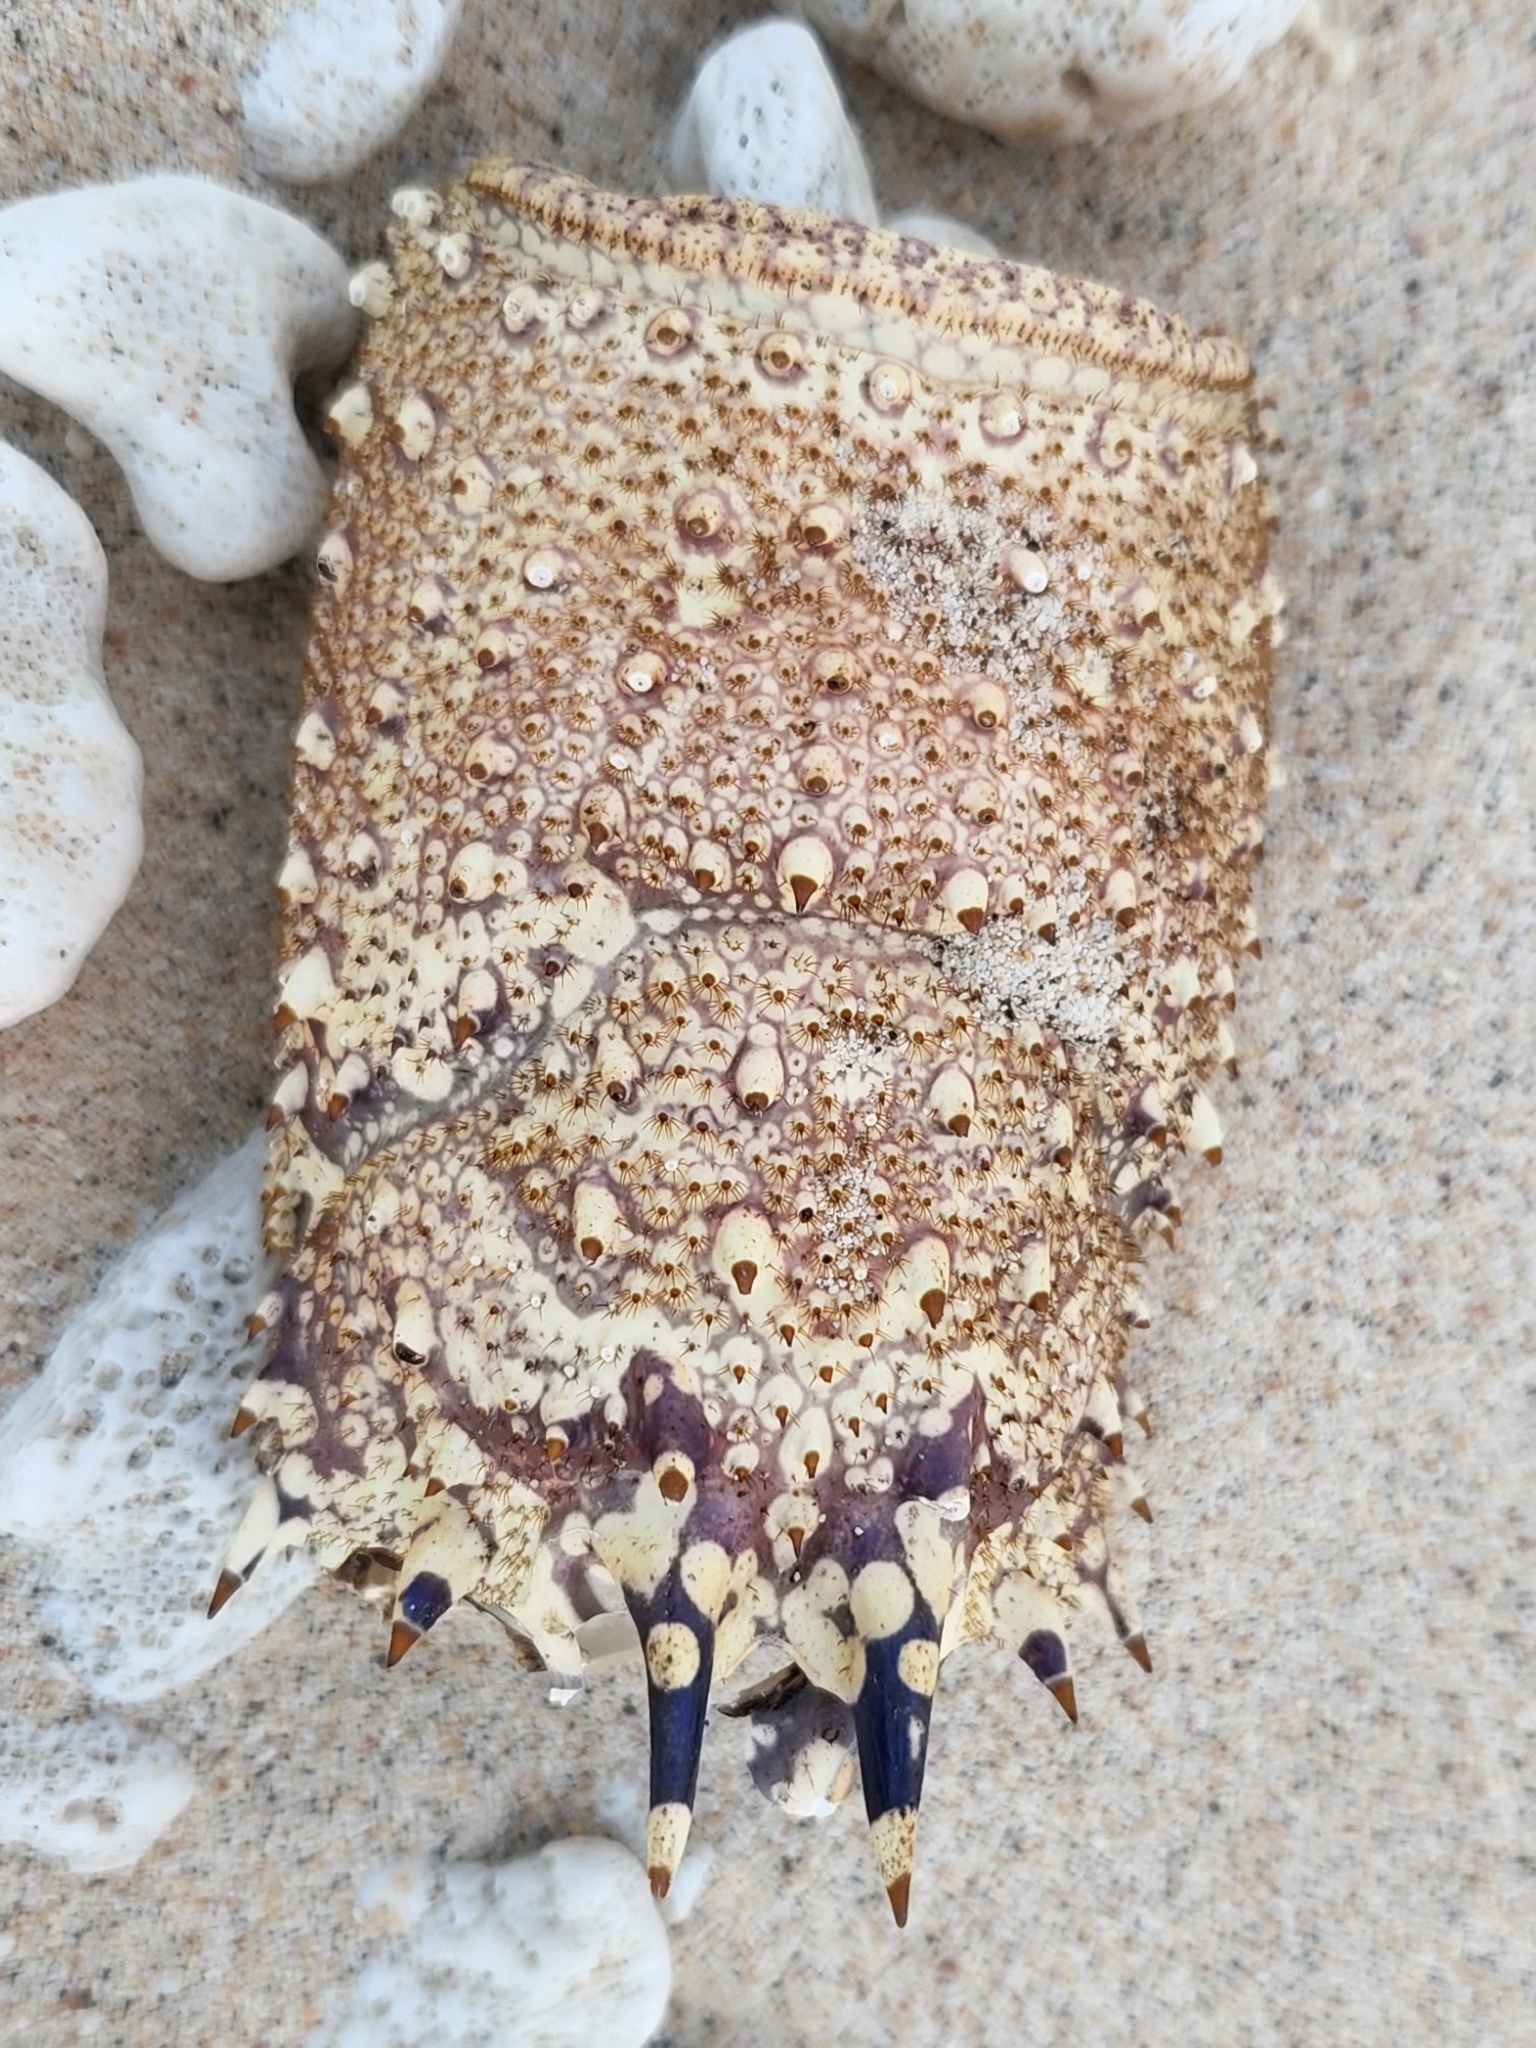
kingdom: Animalia
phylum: Arthropoda
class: Malacostraca
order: Decapoda
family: Palinuridae
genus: Panulirus
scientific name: Panulirus penicillatus
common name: Pronghorn spiny lobster
